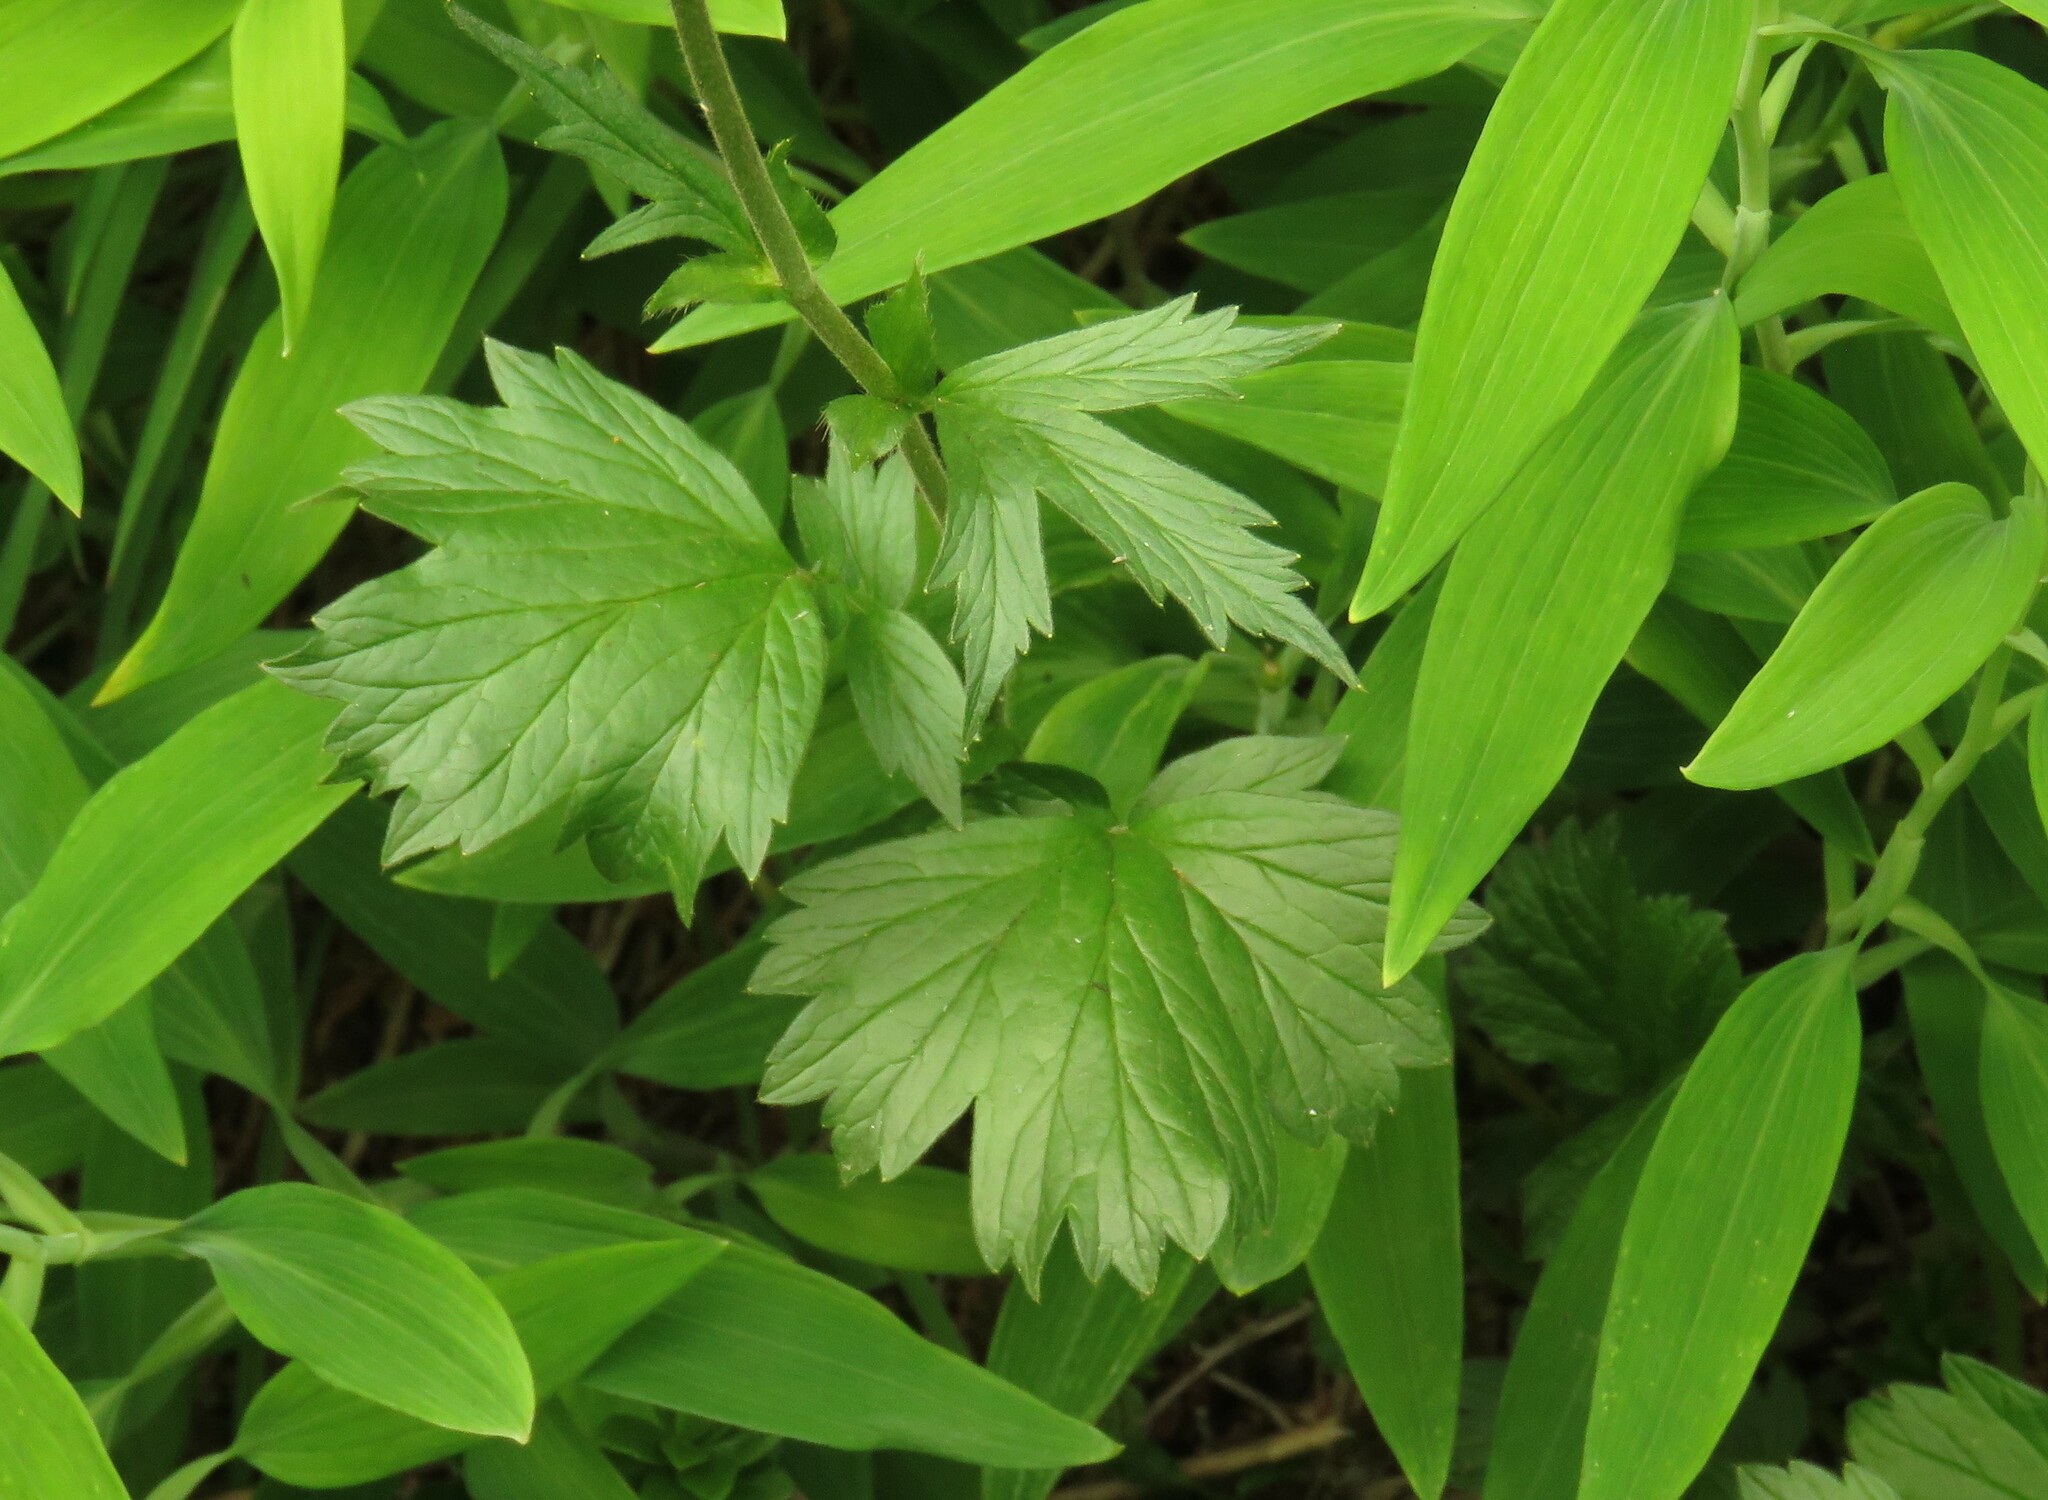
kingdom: Plantae
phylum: Tracheophyta
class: Magnoliopsida
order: Rosales
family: Rosaceae
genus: Geum
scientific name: Geum magellanicum
